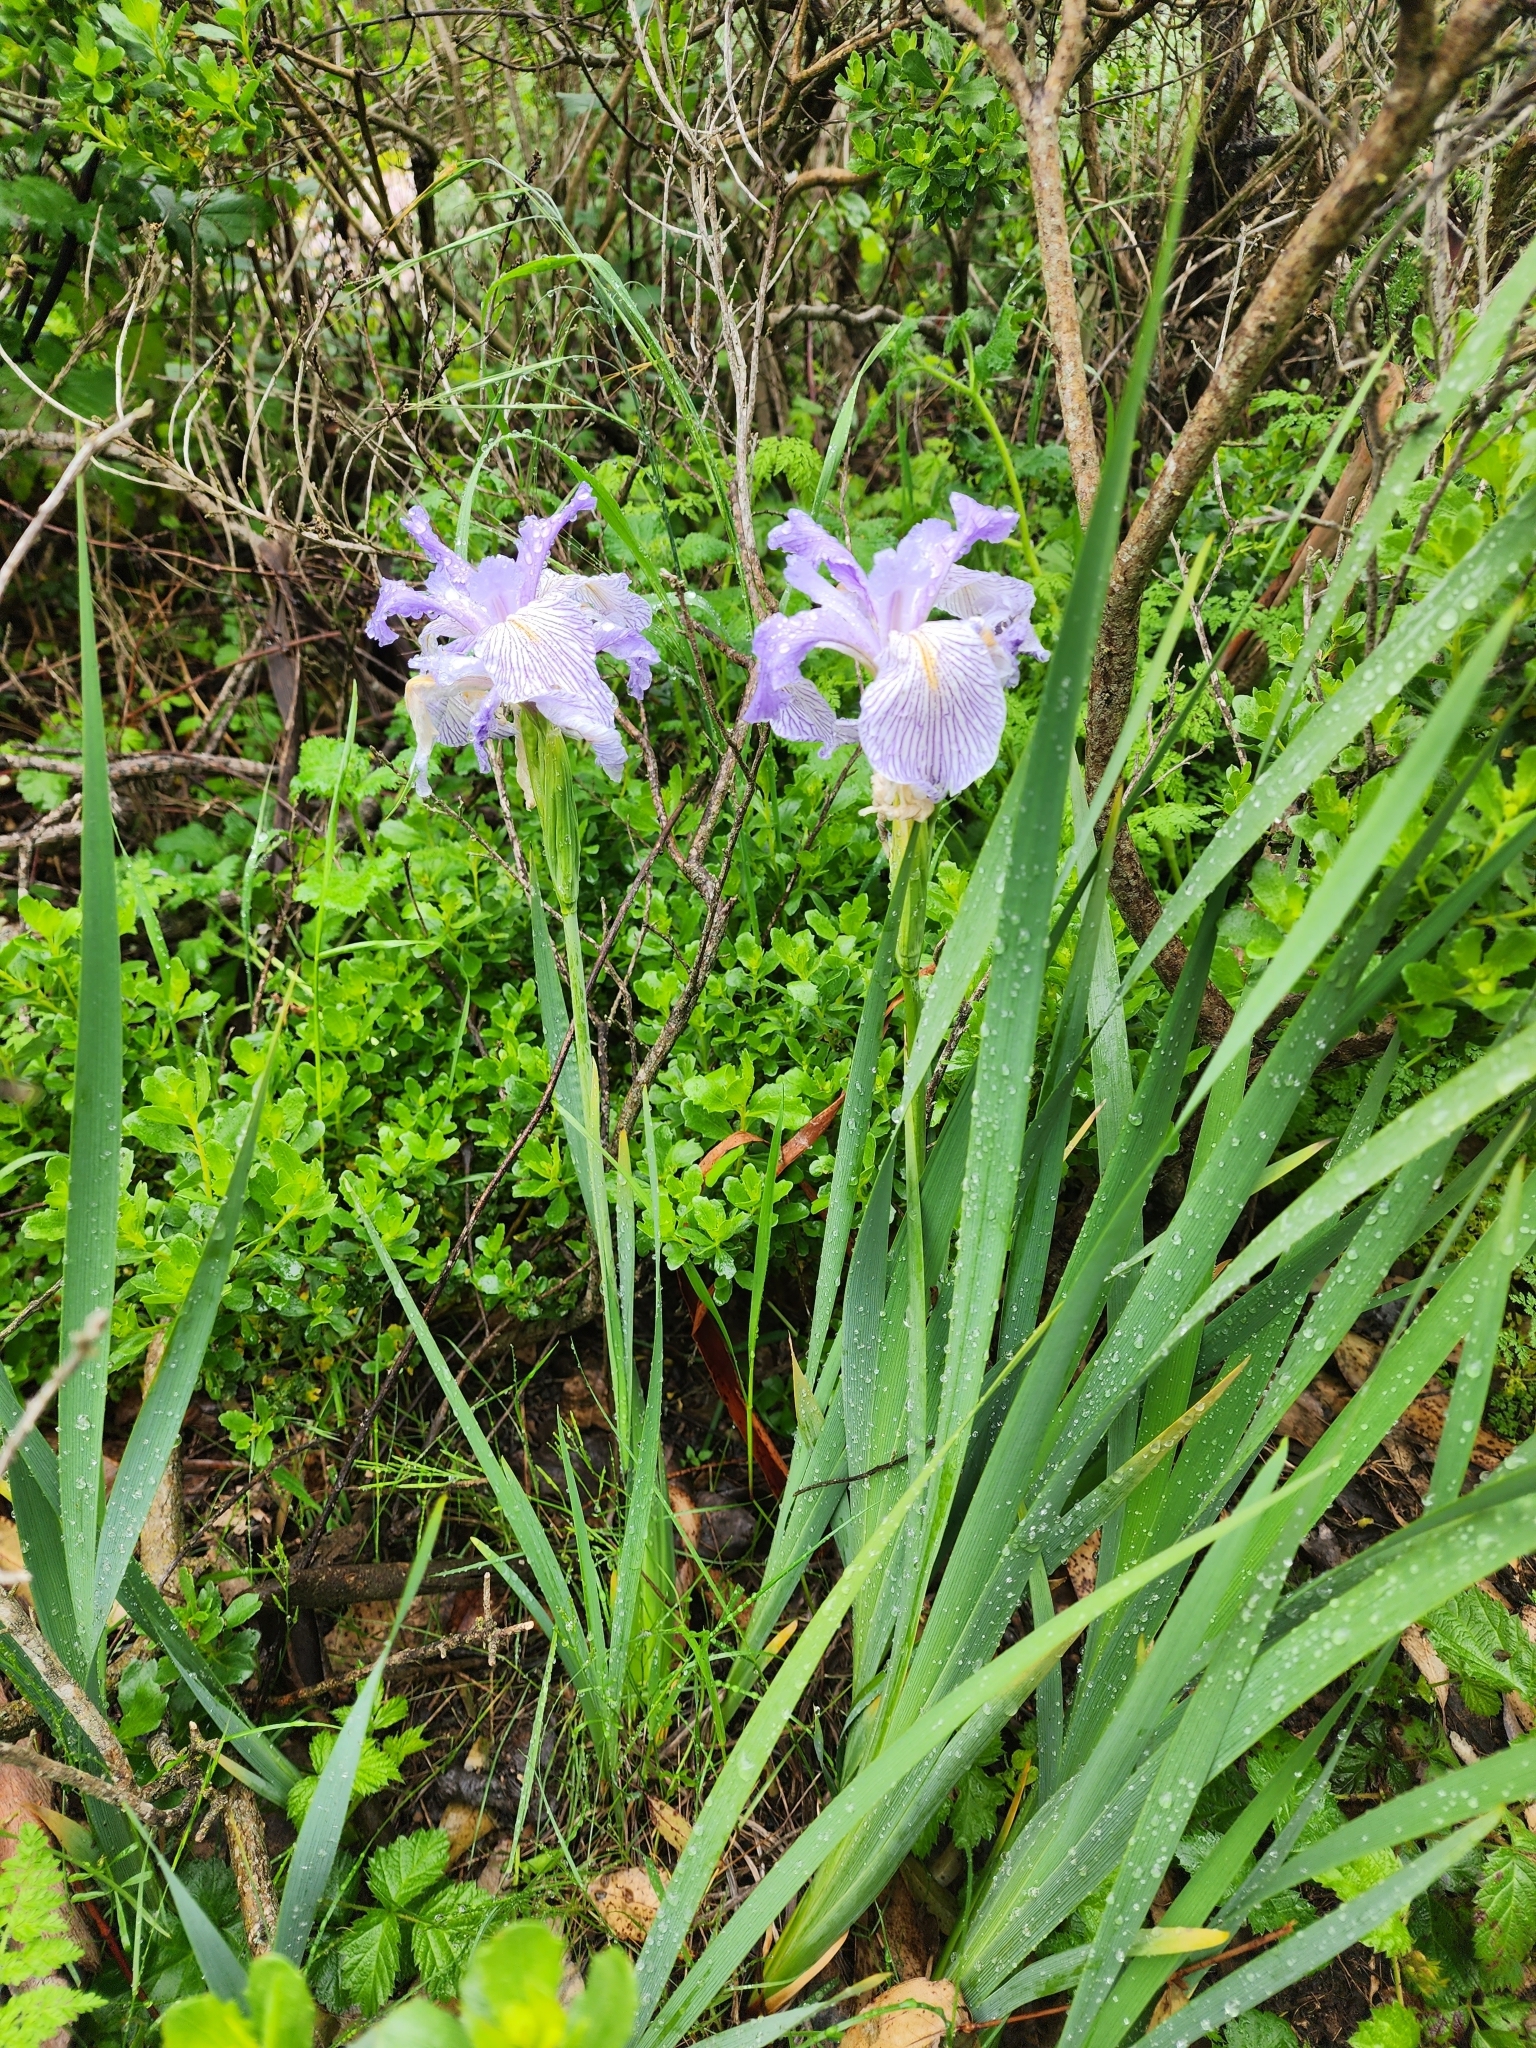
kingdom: Plantae
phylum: Tracheophyta
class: Liliopsida
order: Asparagales
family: Iridaceae
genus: Iris
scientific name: Iris longipetala
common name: Long-petal iris
